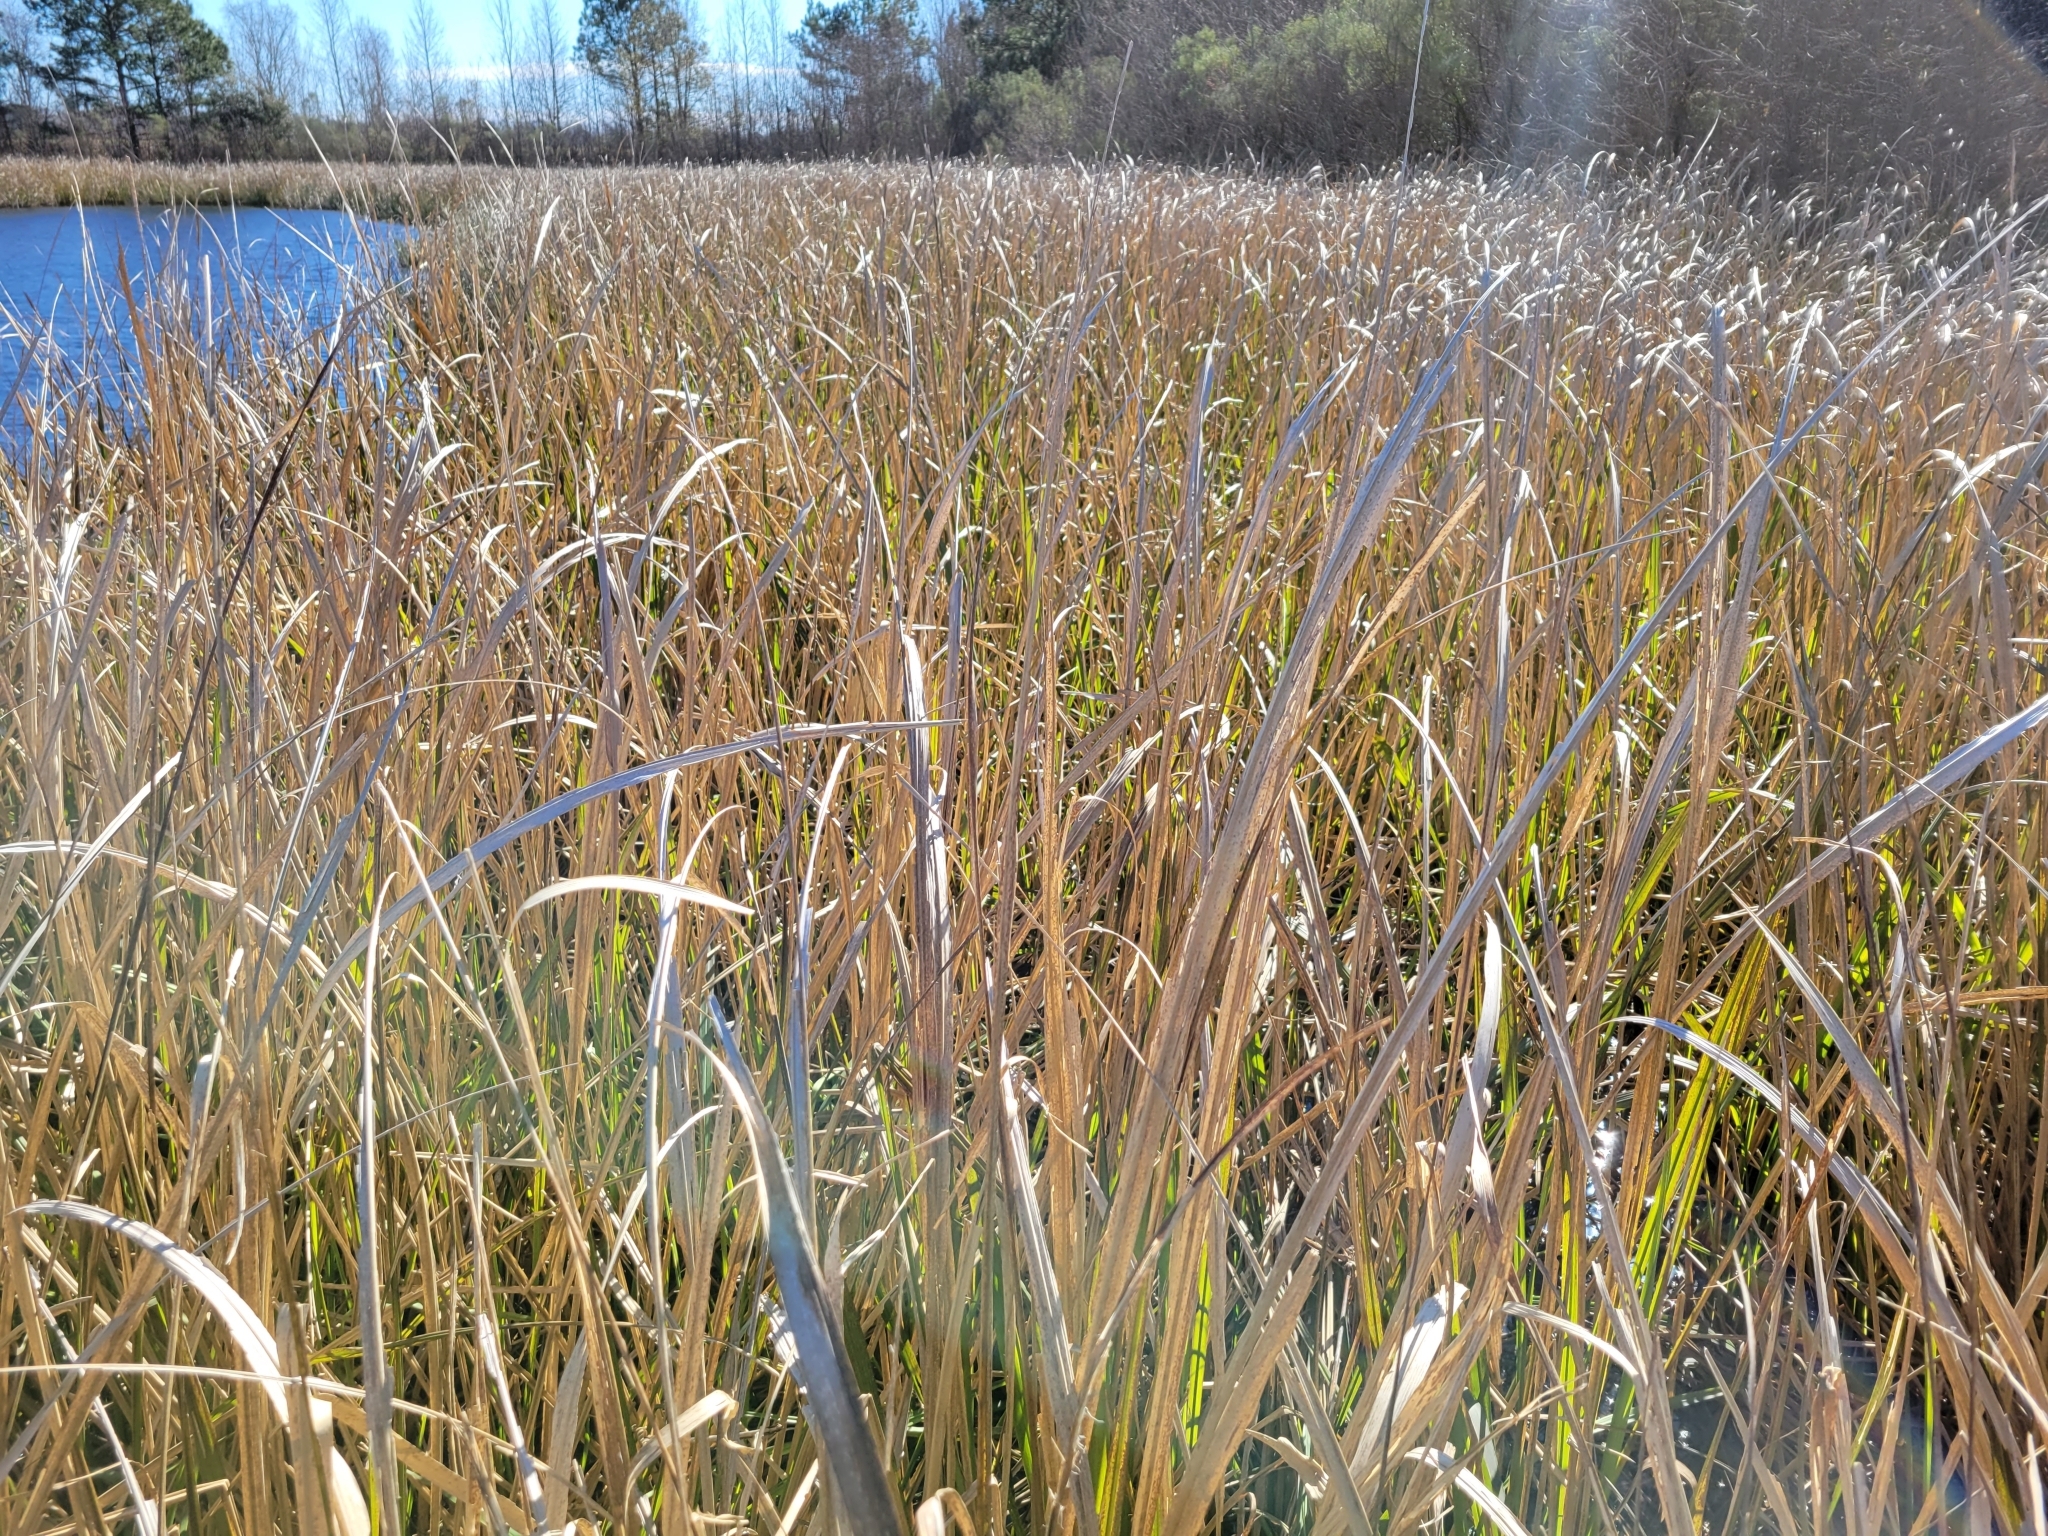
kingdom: Plantae
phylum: Tracheophyta
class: Liliopsida
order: Poales
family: Poaceae
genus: Zizaniopsis
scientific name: Zizaniopsis miliacea
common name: Giant-cutgrass
